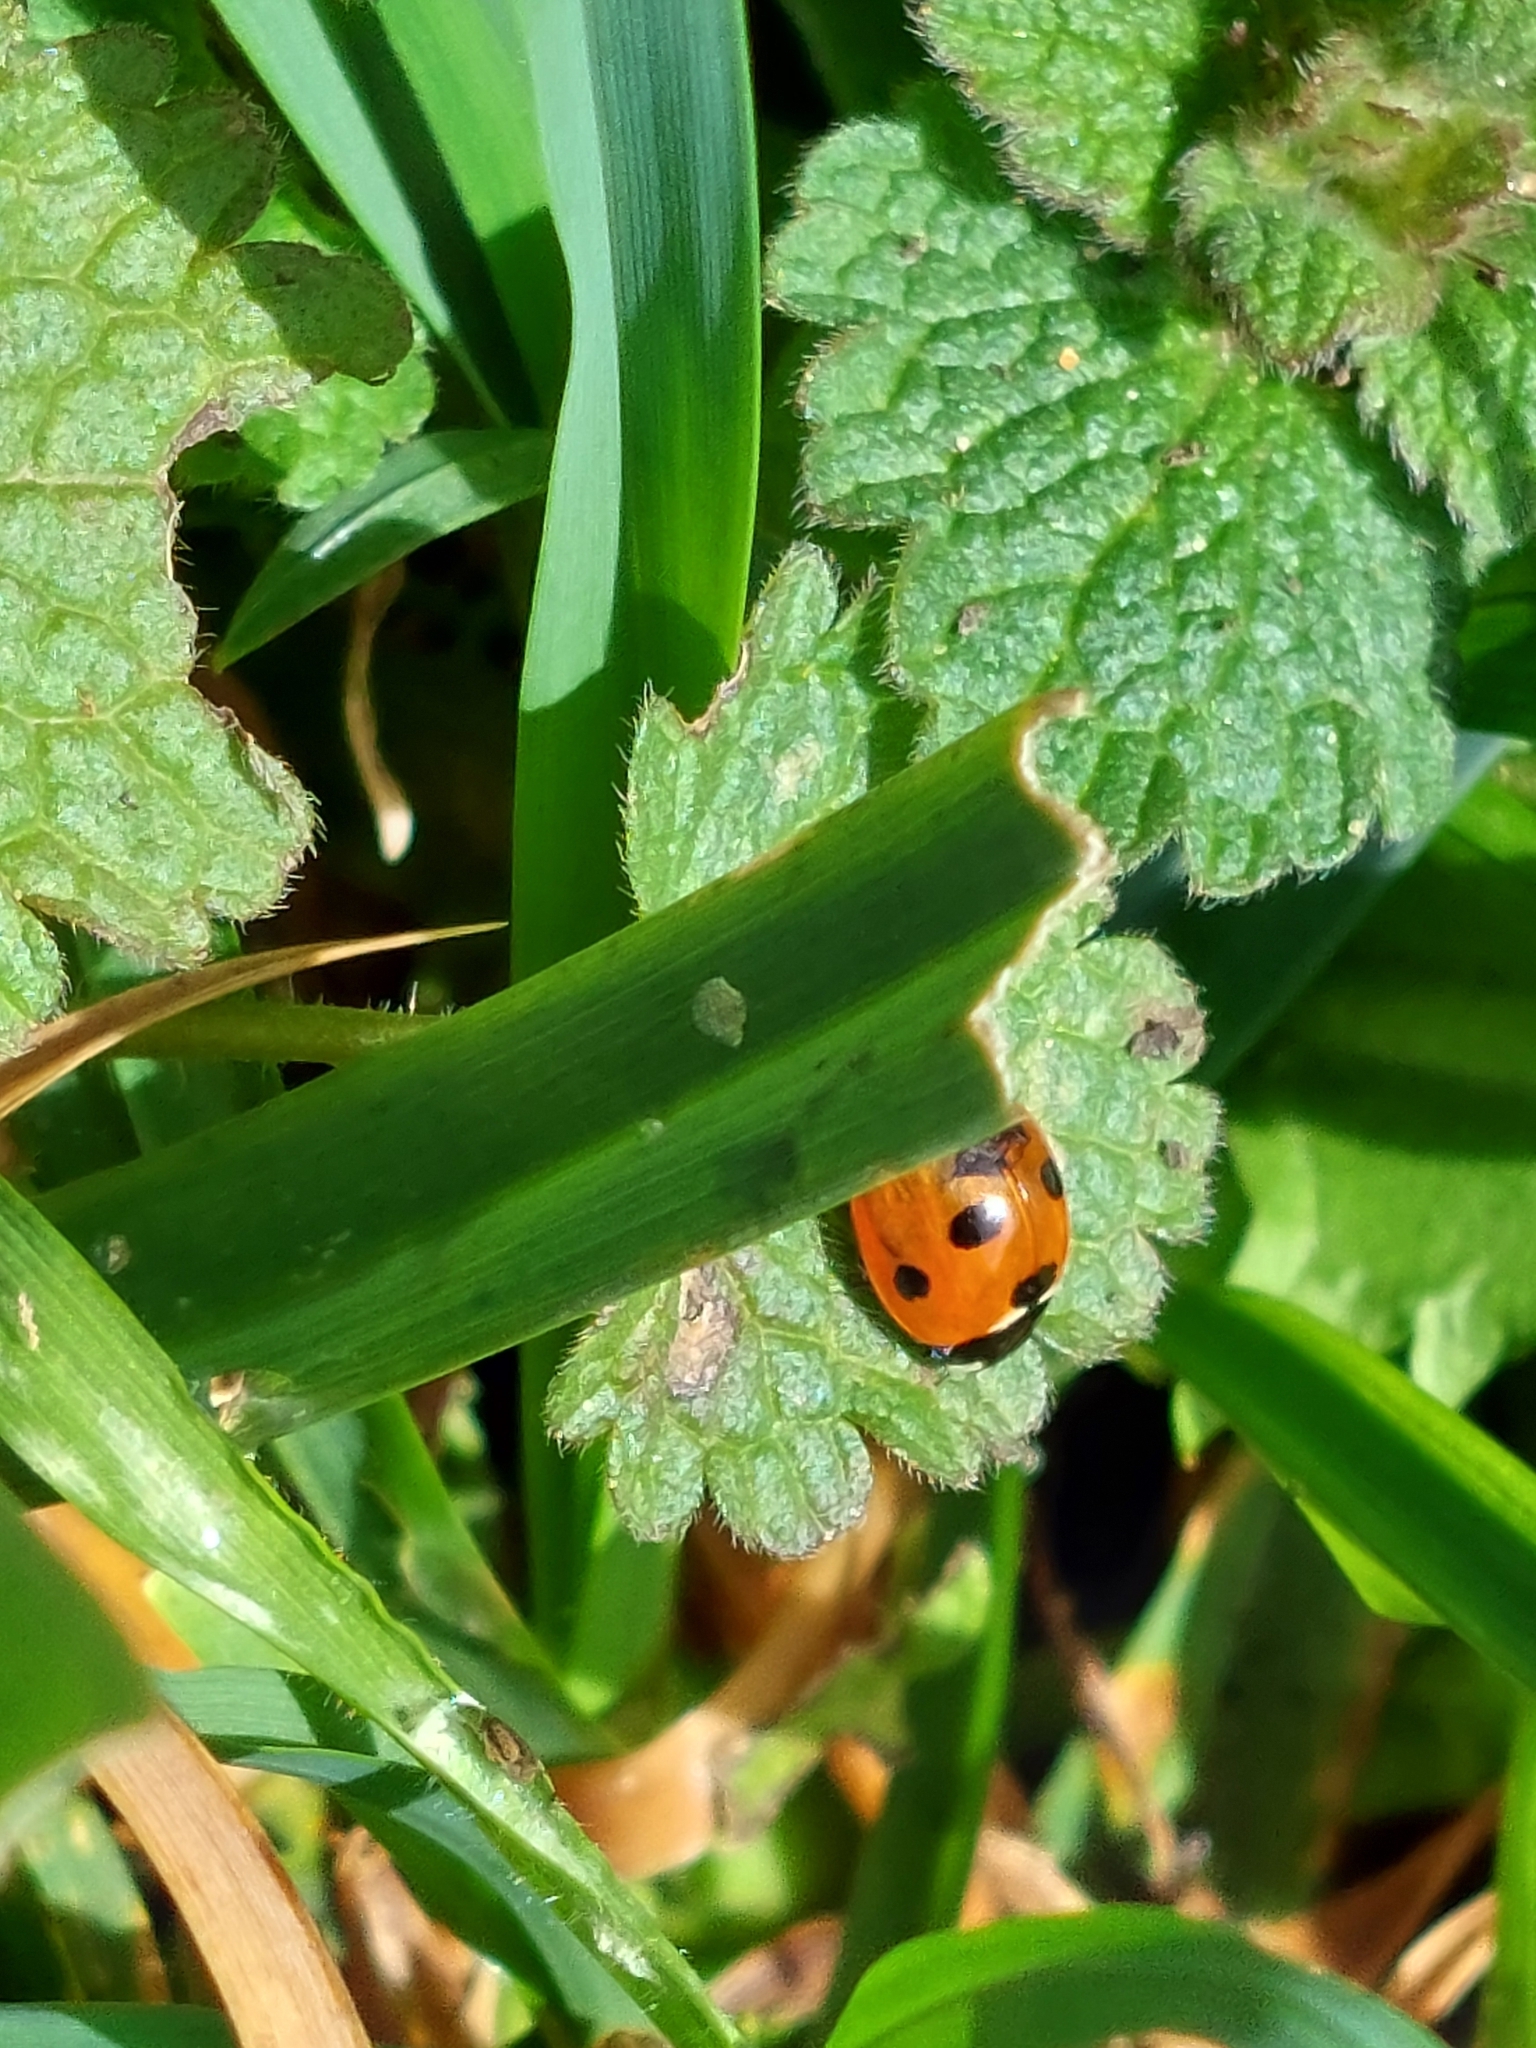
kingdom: Animalia
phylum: Arthropoda
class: Insecta
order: Coleoptera
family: Coccinellidae
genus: Coccinella
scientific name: Coccinella septempunctata
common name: Sevenspotted lady beetle
